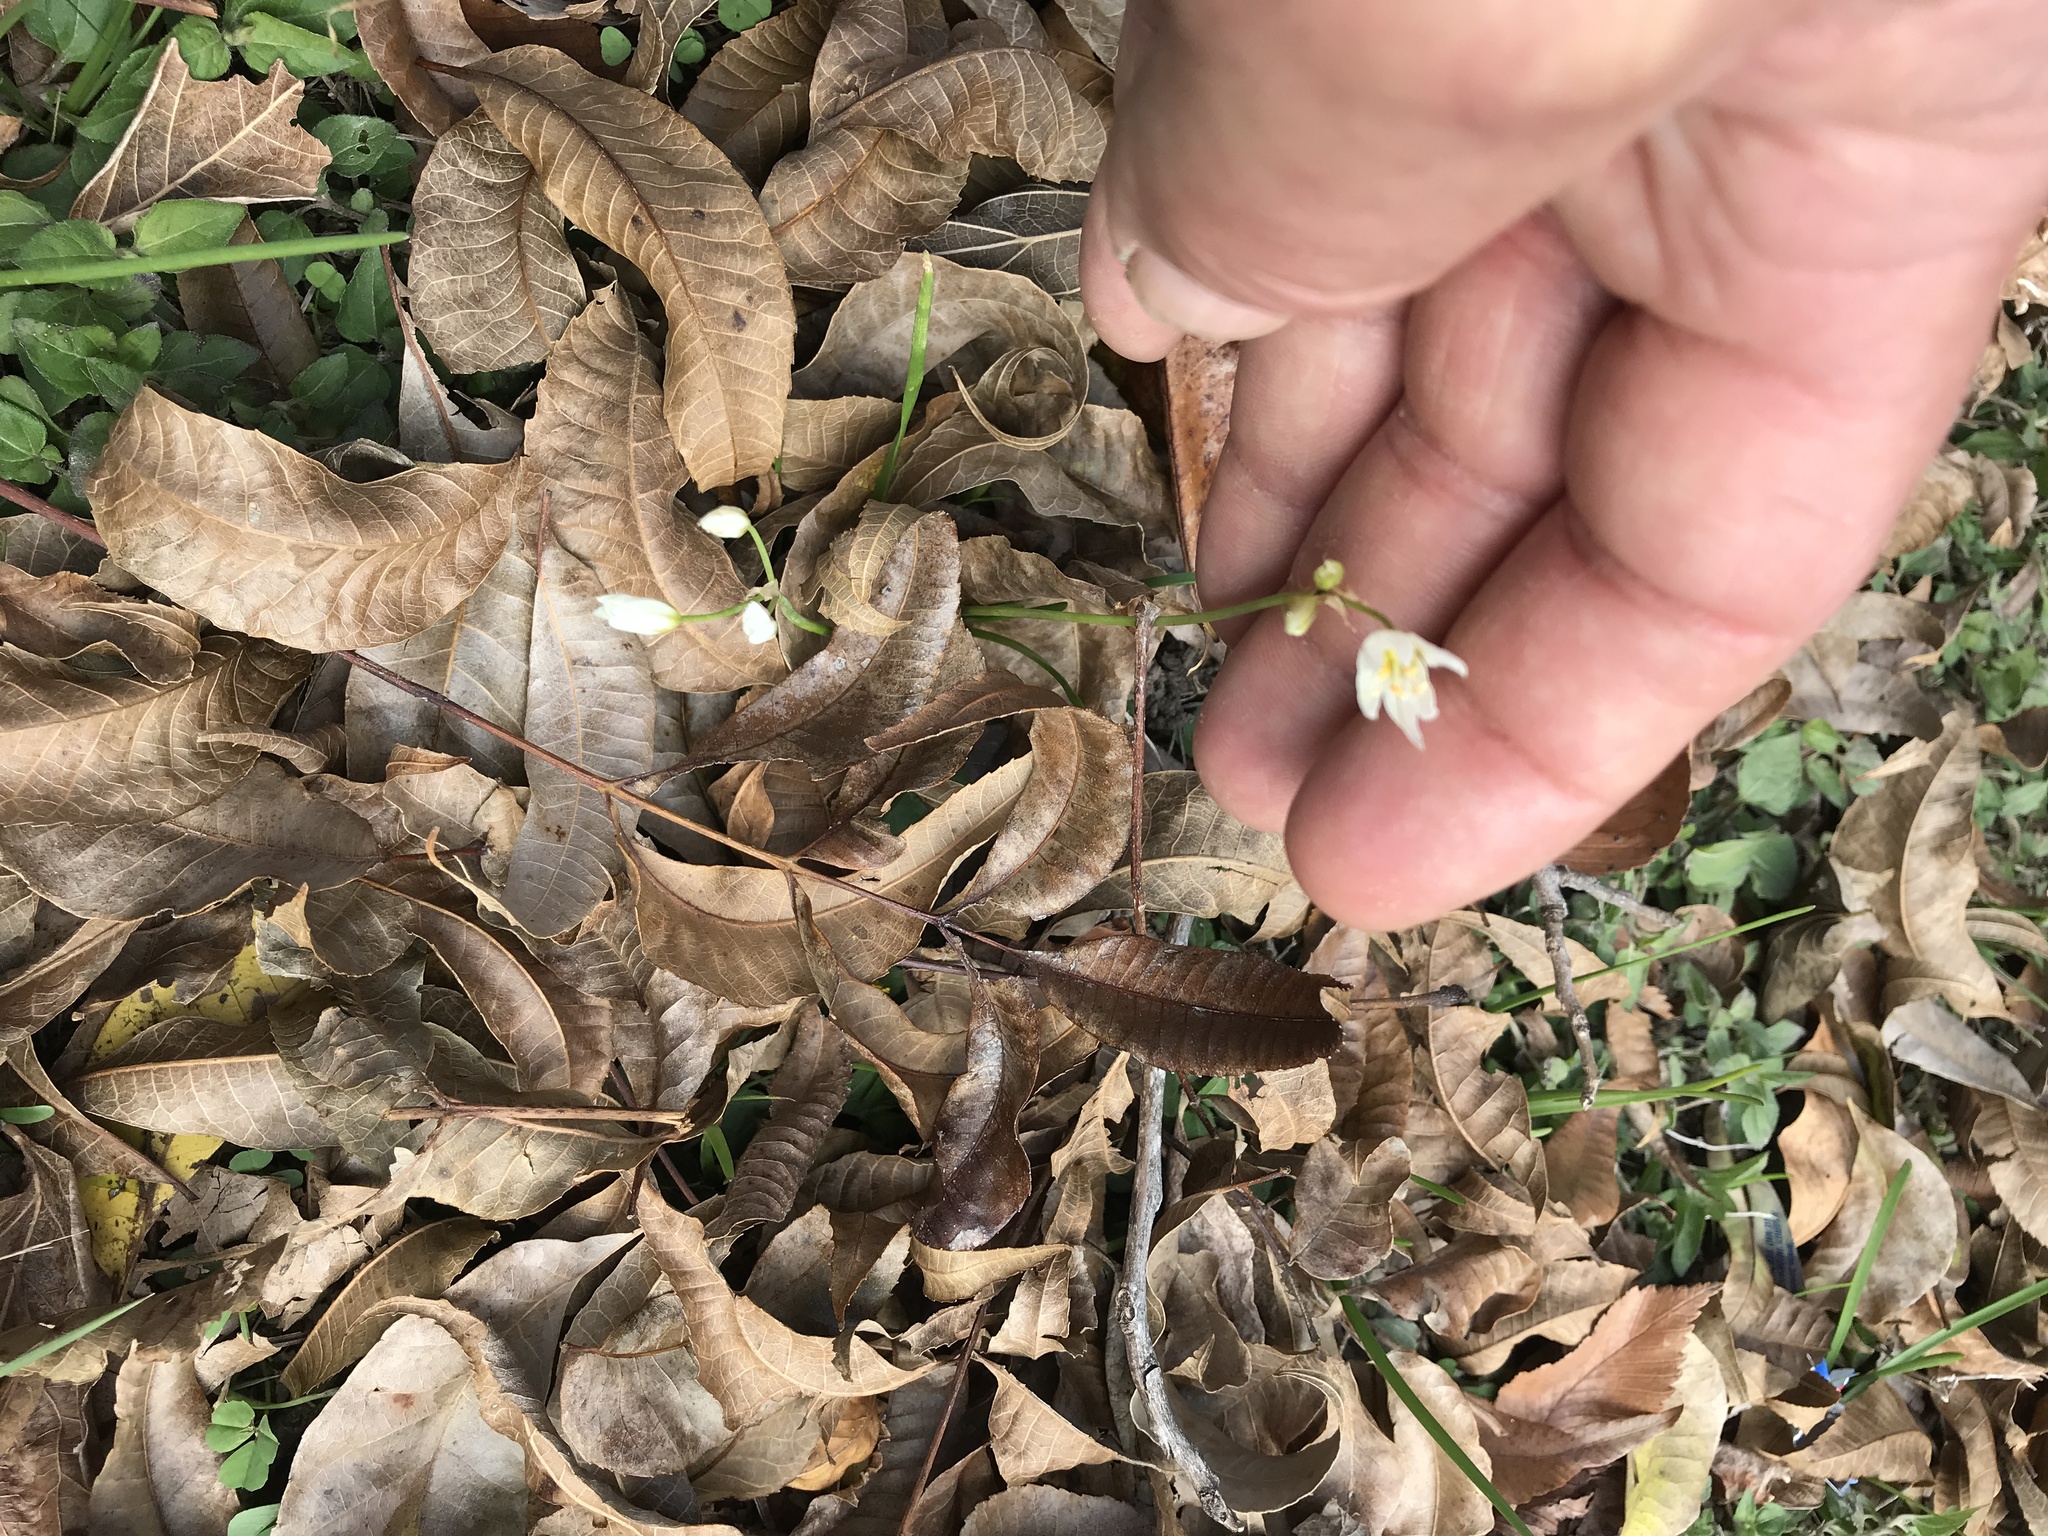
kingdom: Plantae
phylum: Tracheophyta
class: Liliopsida
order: Asparagales
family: Amaryllidaceae
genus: Nothoscordum
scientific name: Nothoscordum bivalve
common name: Crow-poison
